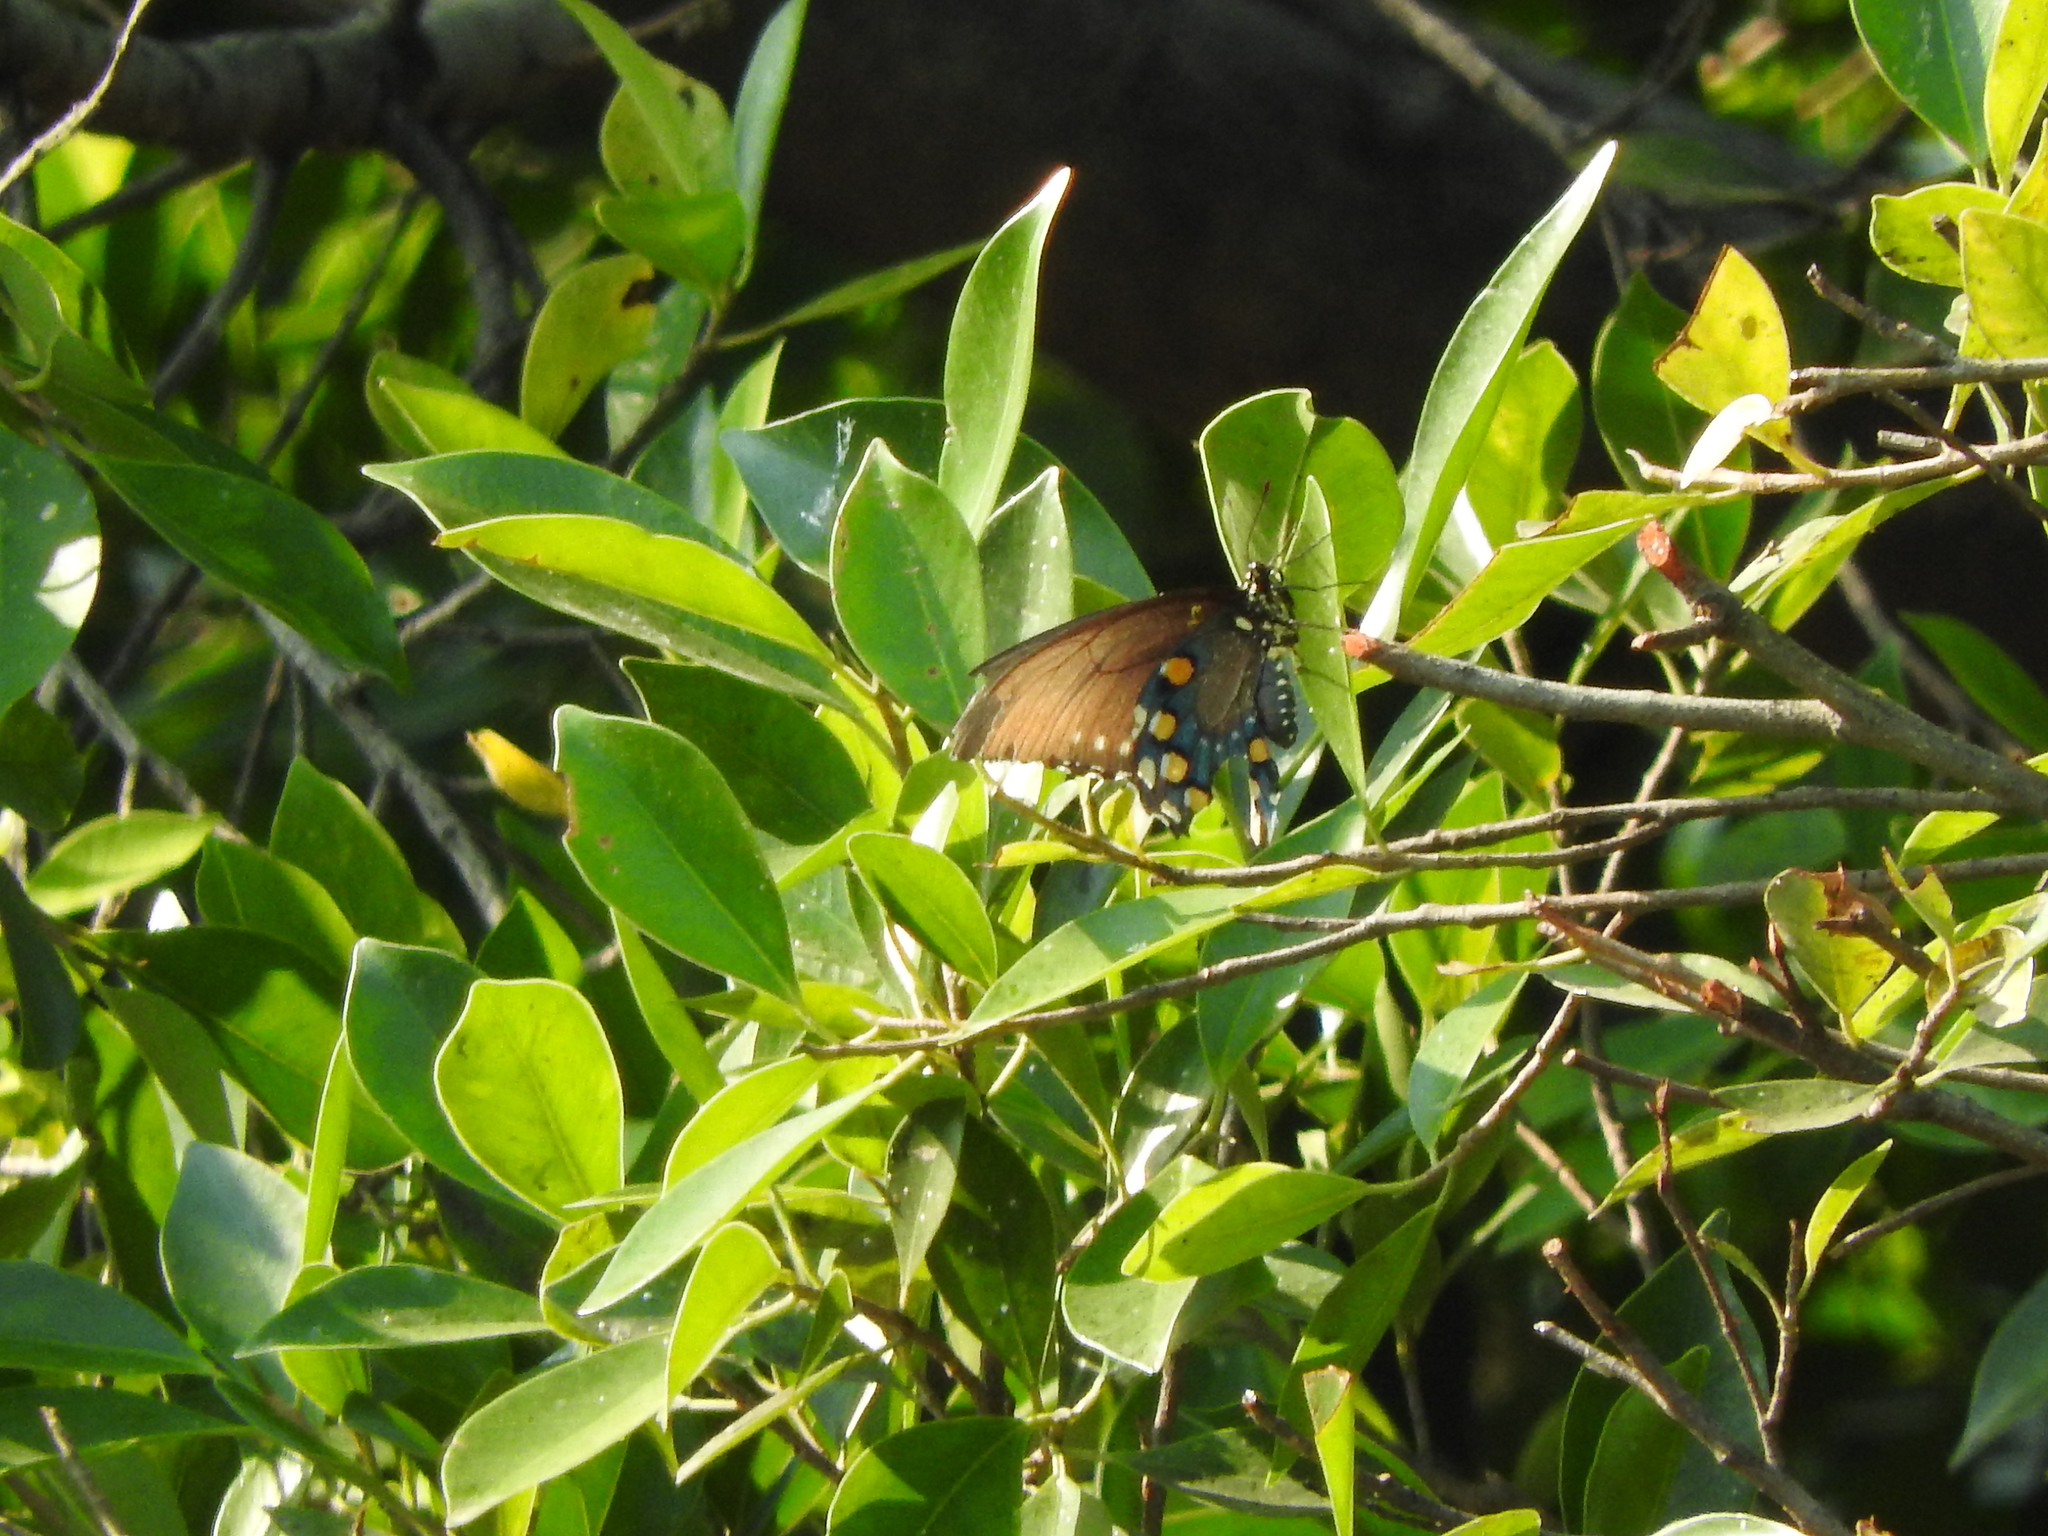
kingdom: Animalia
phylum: Arthropoda
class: Insecta
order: Lepidoptera
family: Papilionidae
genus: Battus
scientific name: Battus philenor
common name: Pipevine swallowtail
